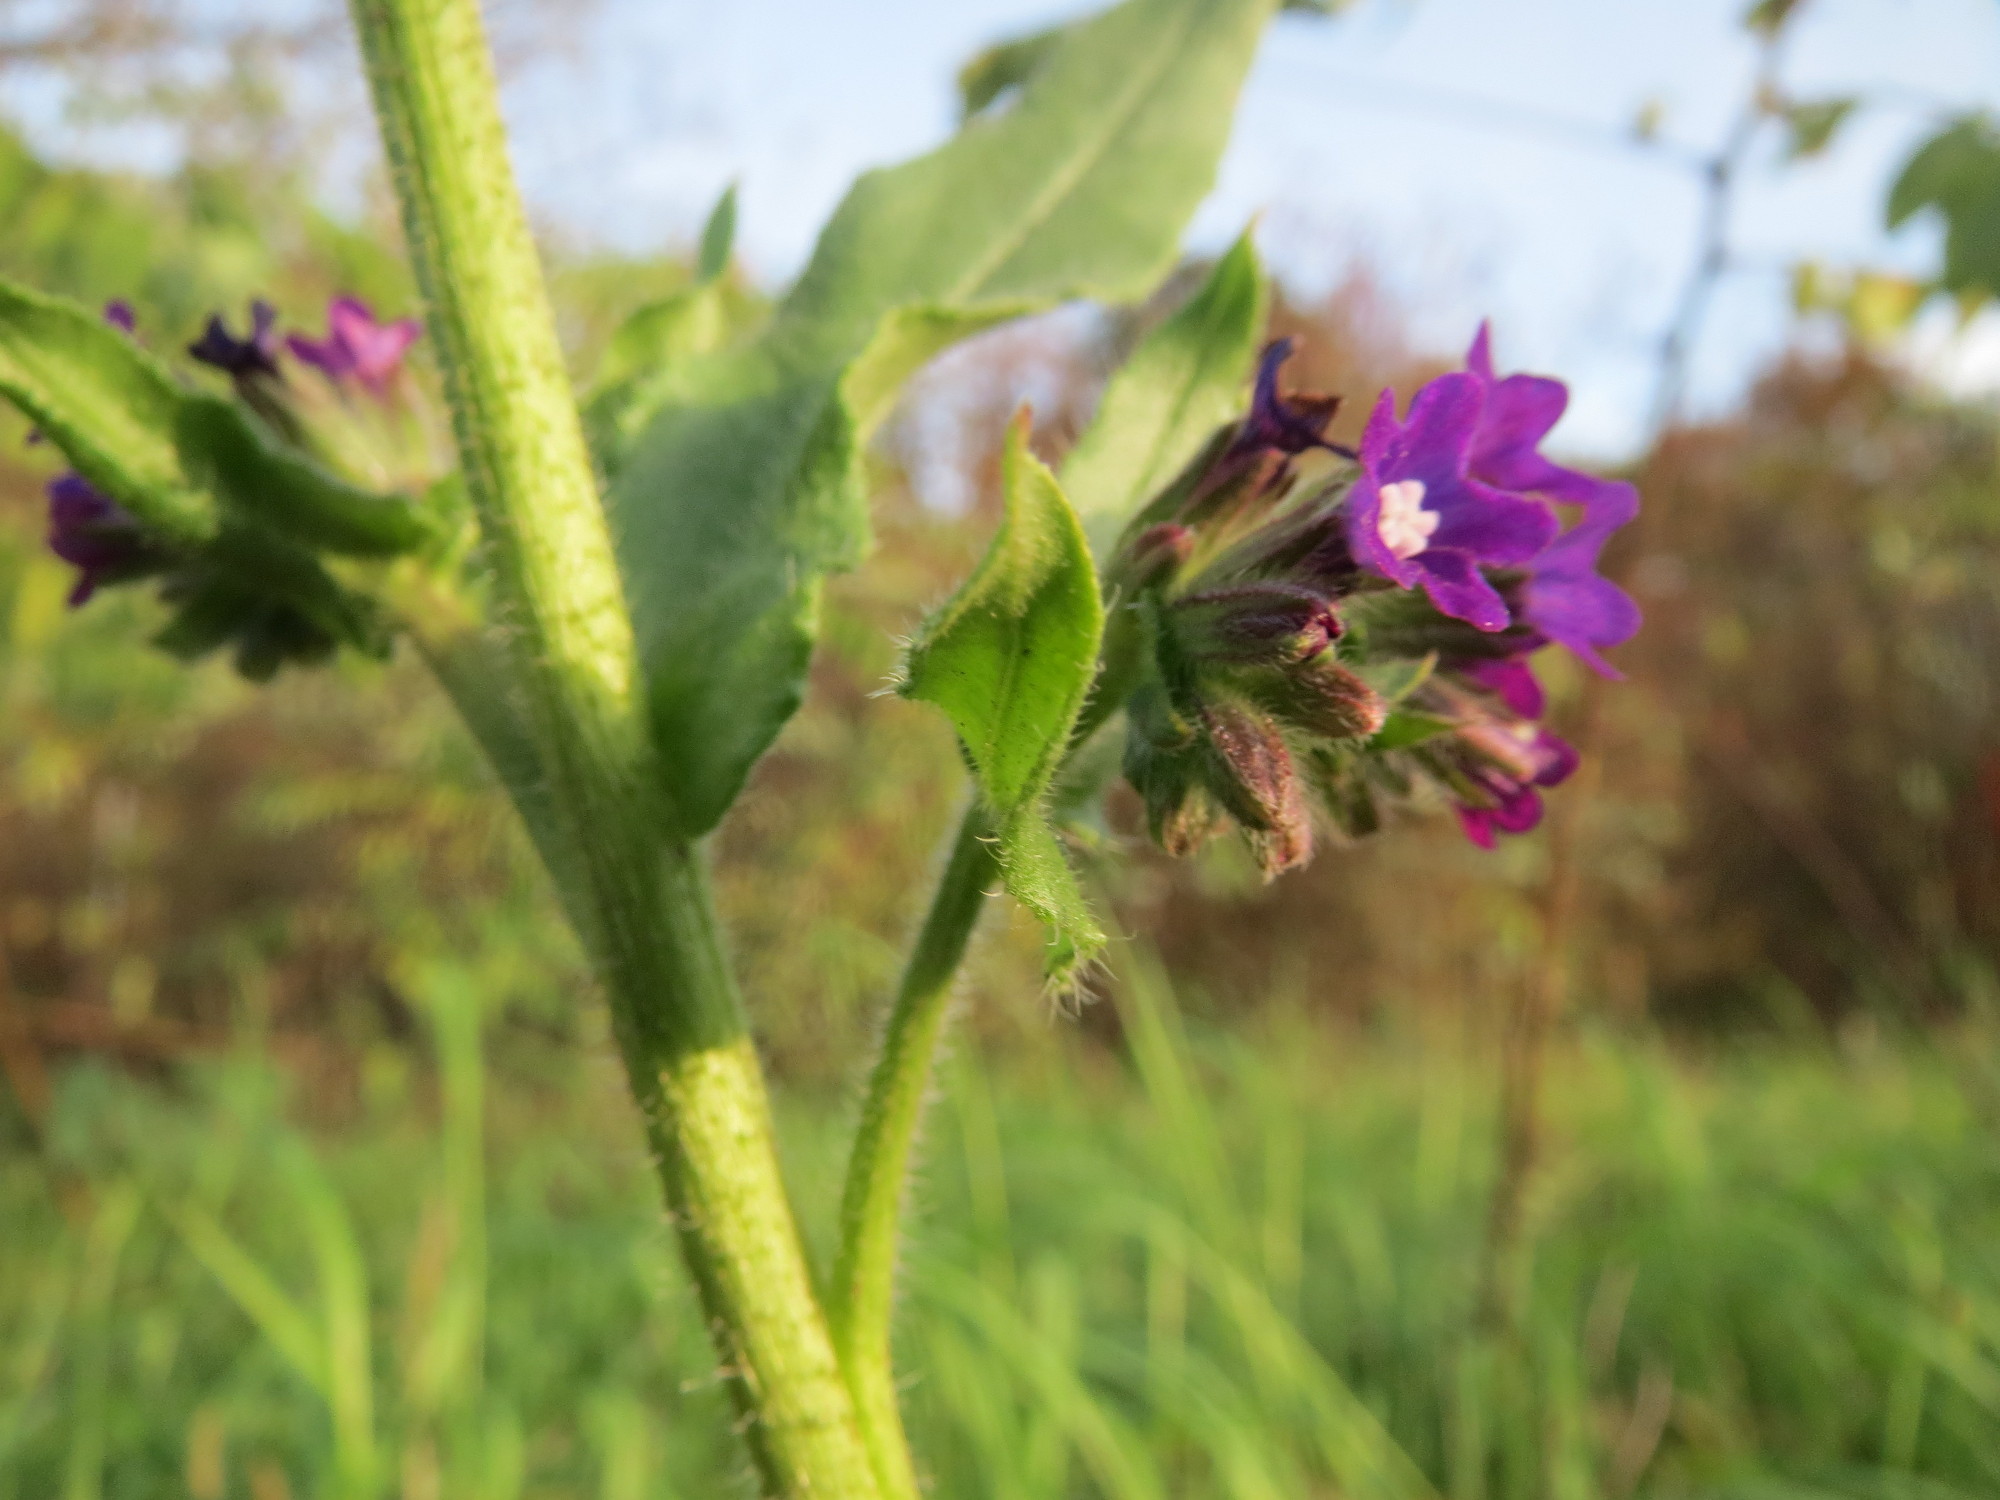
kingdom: Plantae
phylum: Tracheophyta
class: Magnoliopsida
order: Boraginales
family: Boraginaceae
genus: Anchusa
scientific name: Anchusa officinalis
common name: Alkanet
